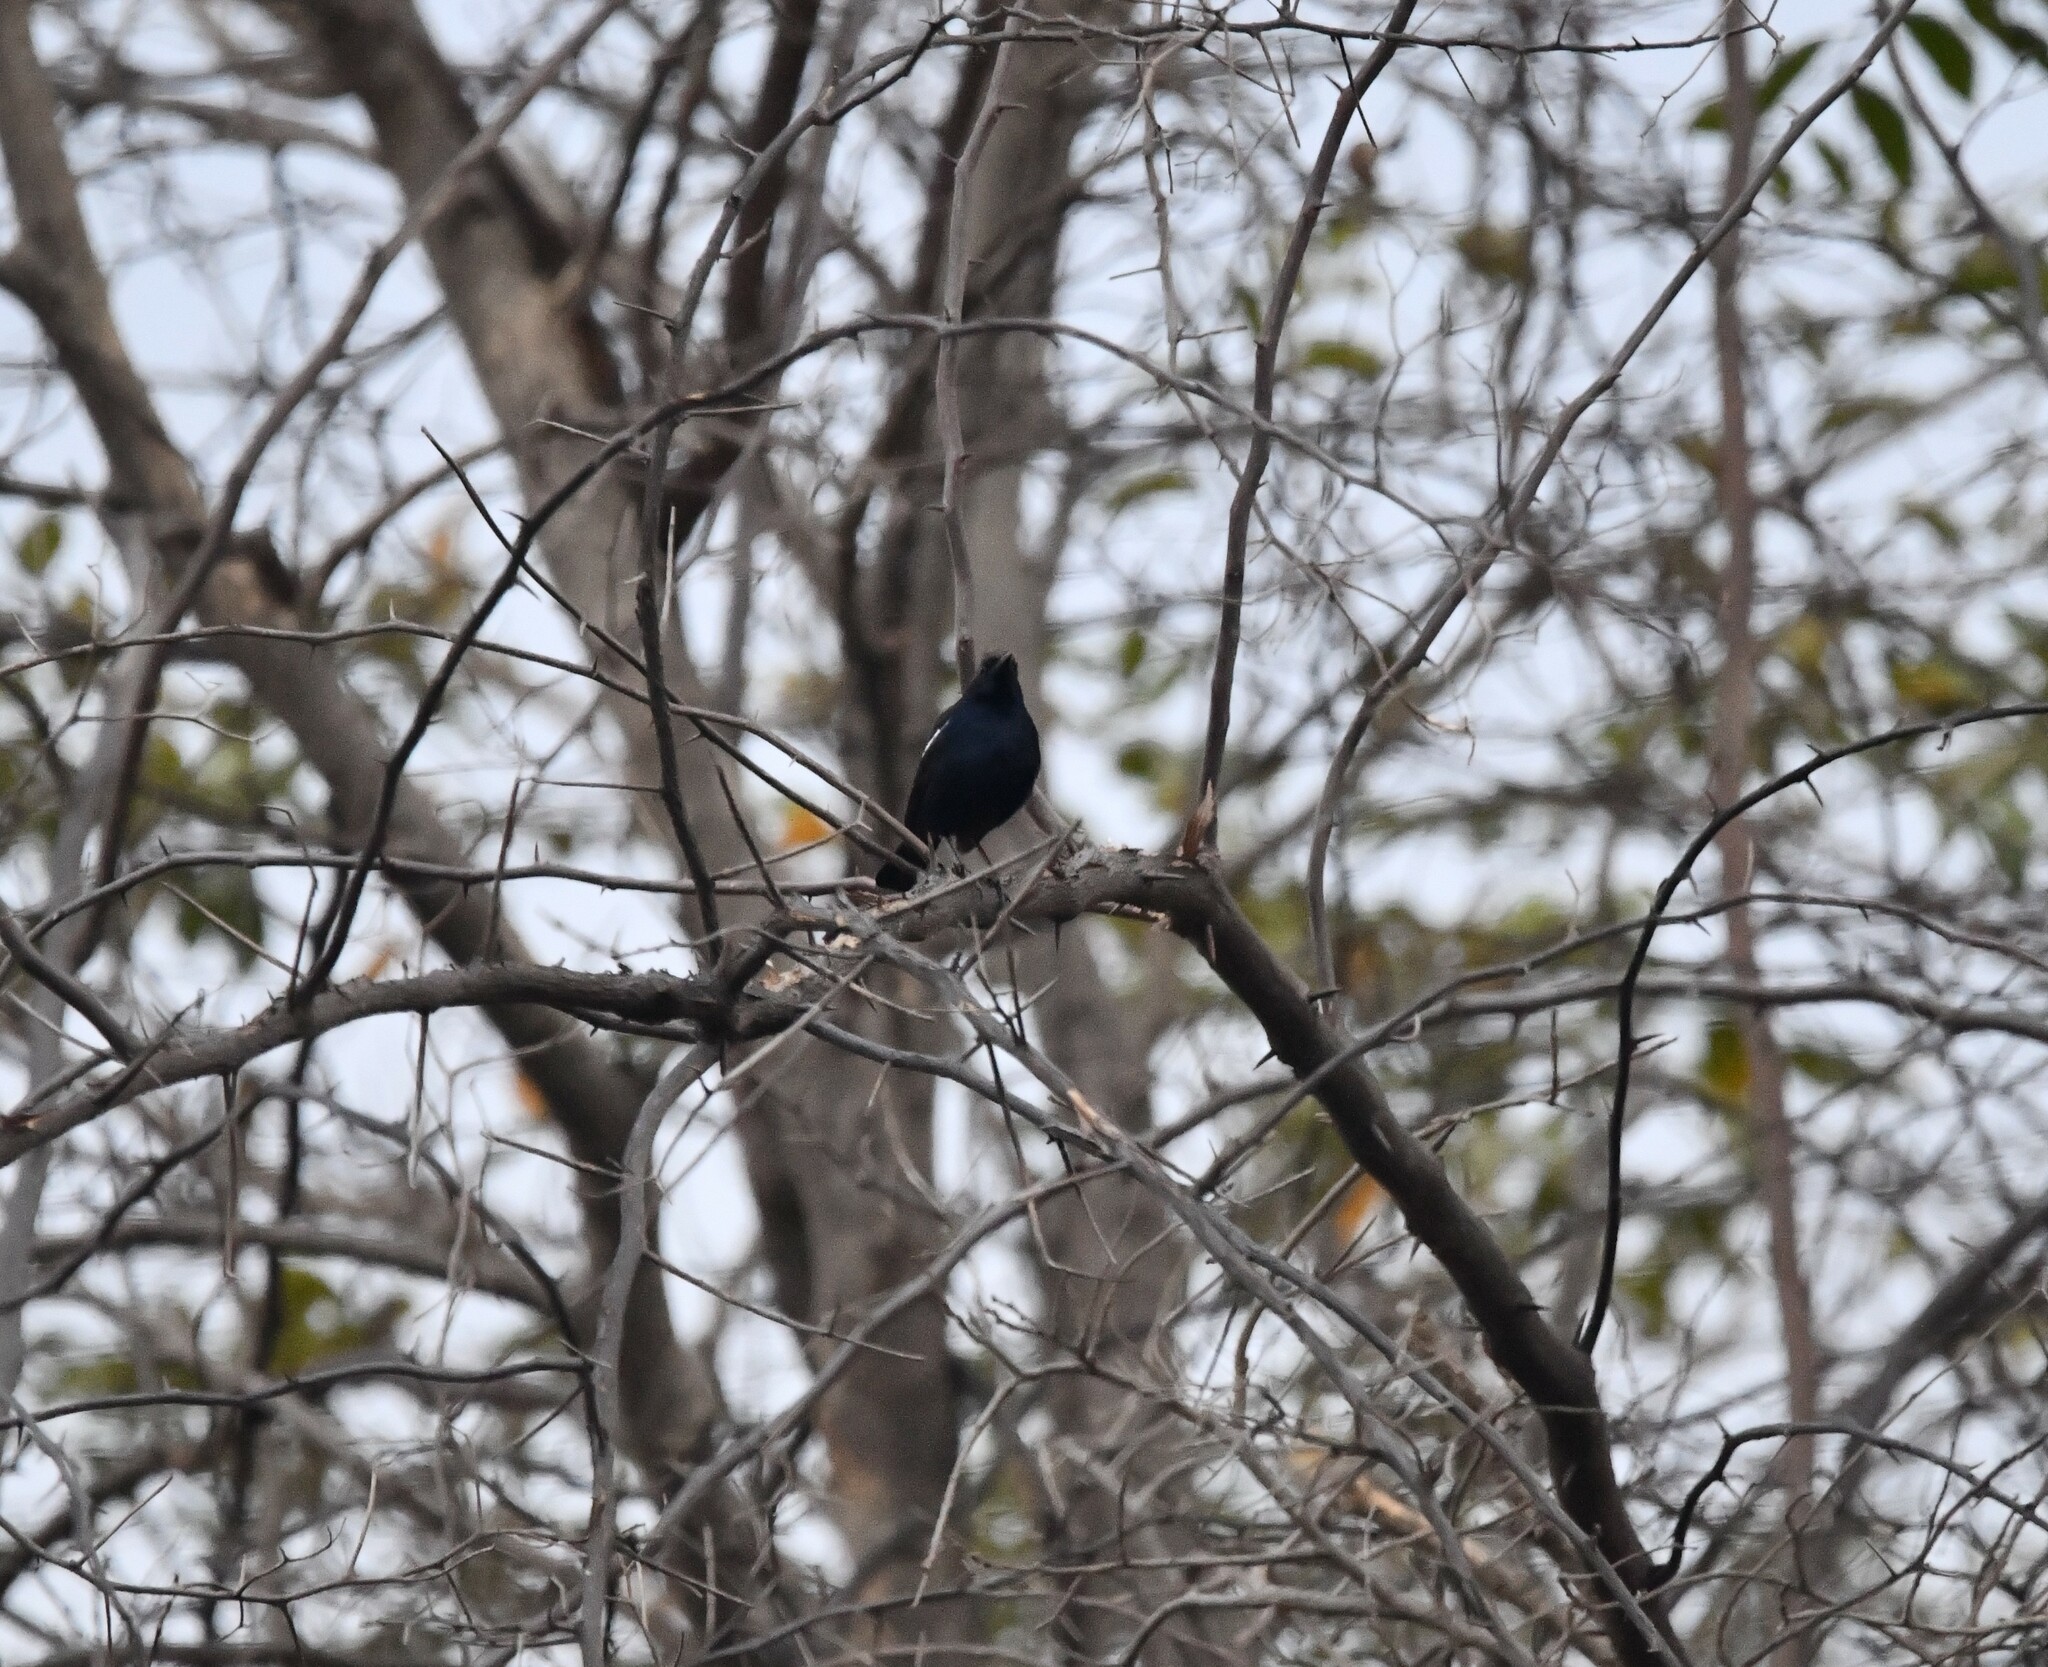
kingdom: Animalia
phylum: Chordata
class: Aves
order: Passeriformes
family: Muscicapidae
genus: Saxicoloides
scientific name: Saxicoloides fulicatus
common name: Indian robin
